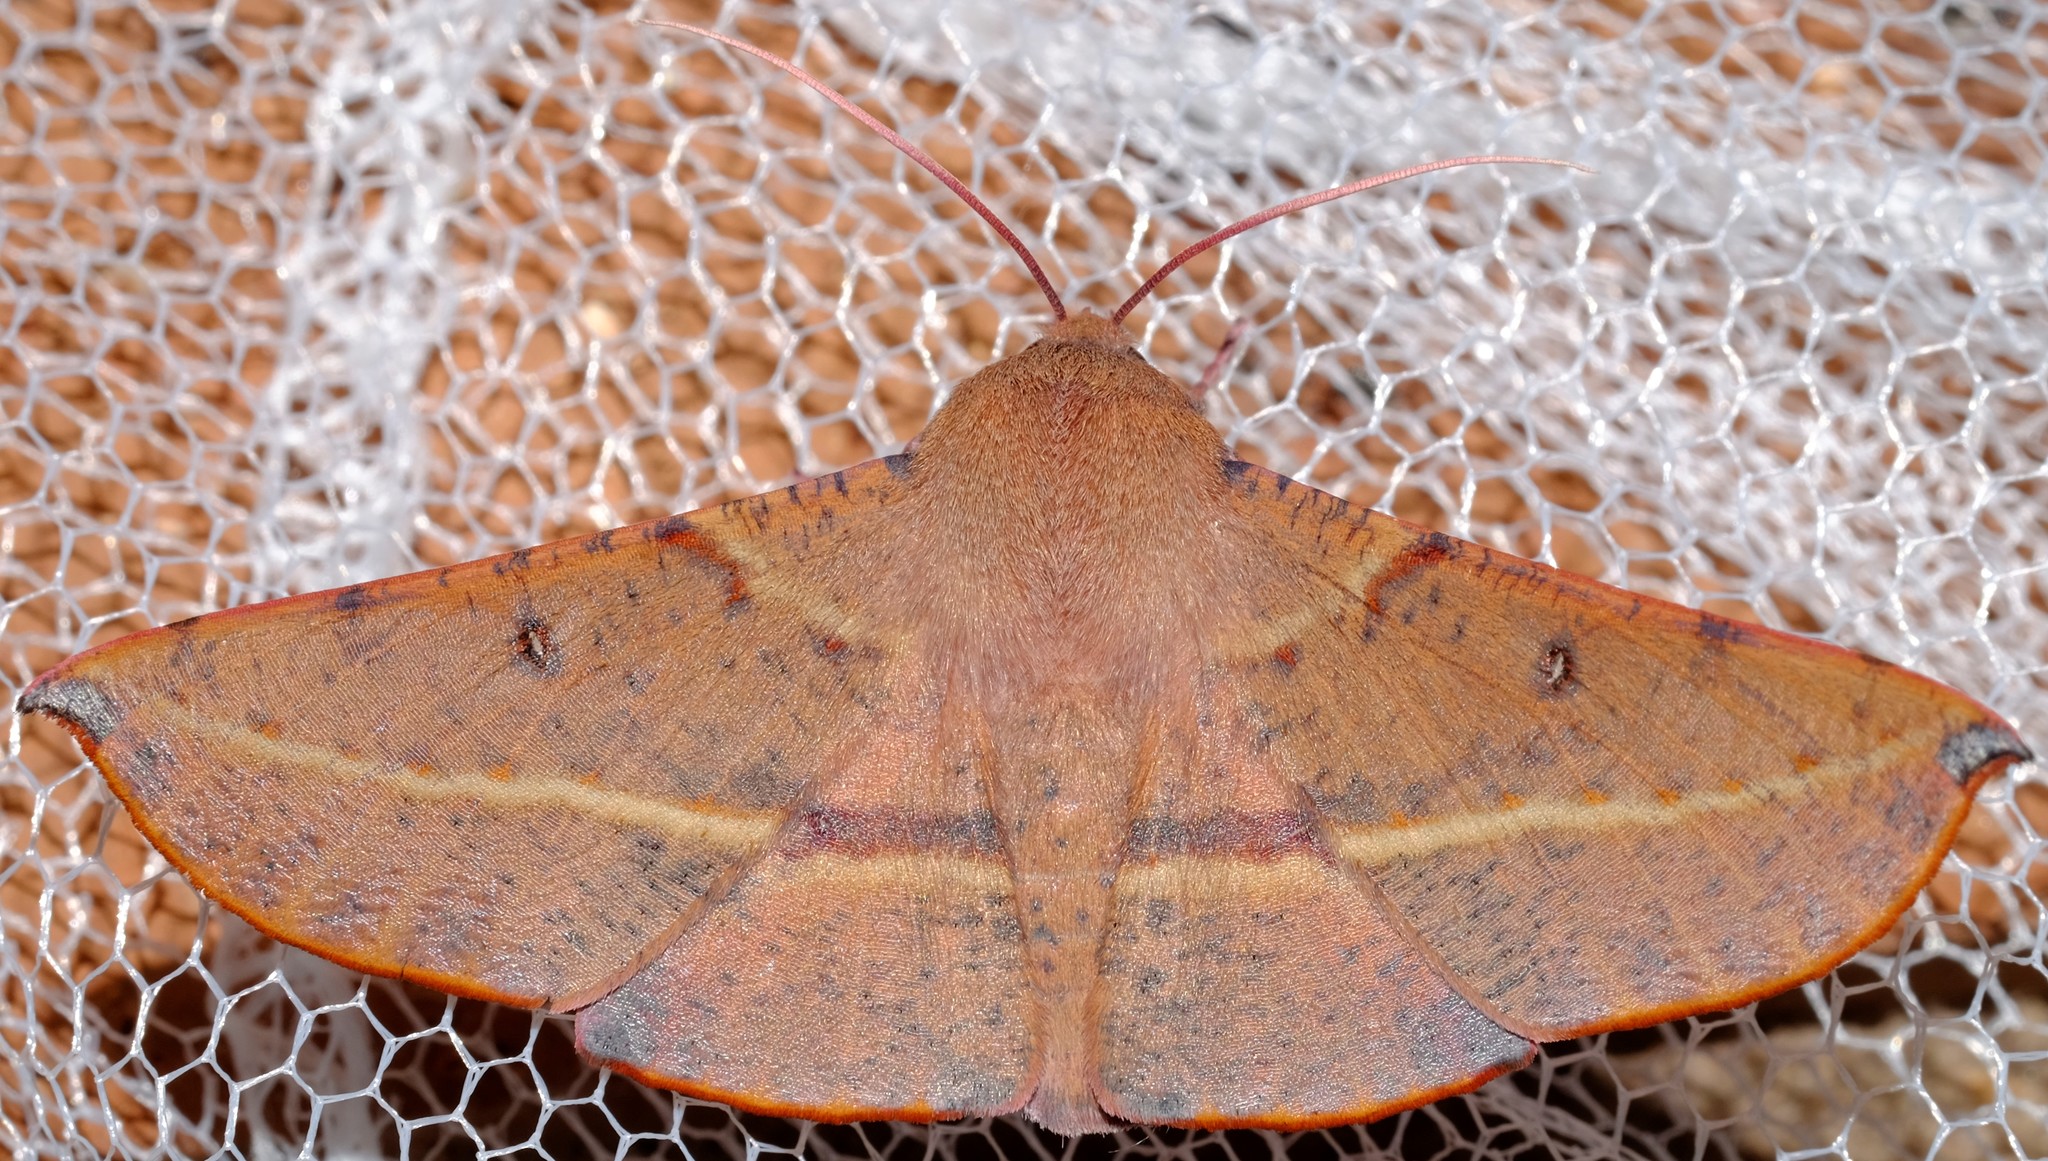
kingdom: Animalia
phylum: Arthropoda
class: Insecta
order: Lepidoptera
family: Geometridae
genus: Oenochroma
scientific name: Oenochroma vinaria
